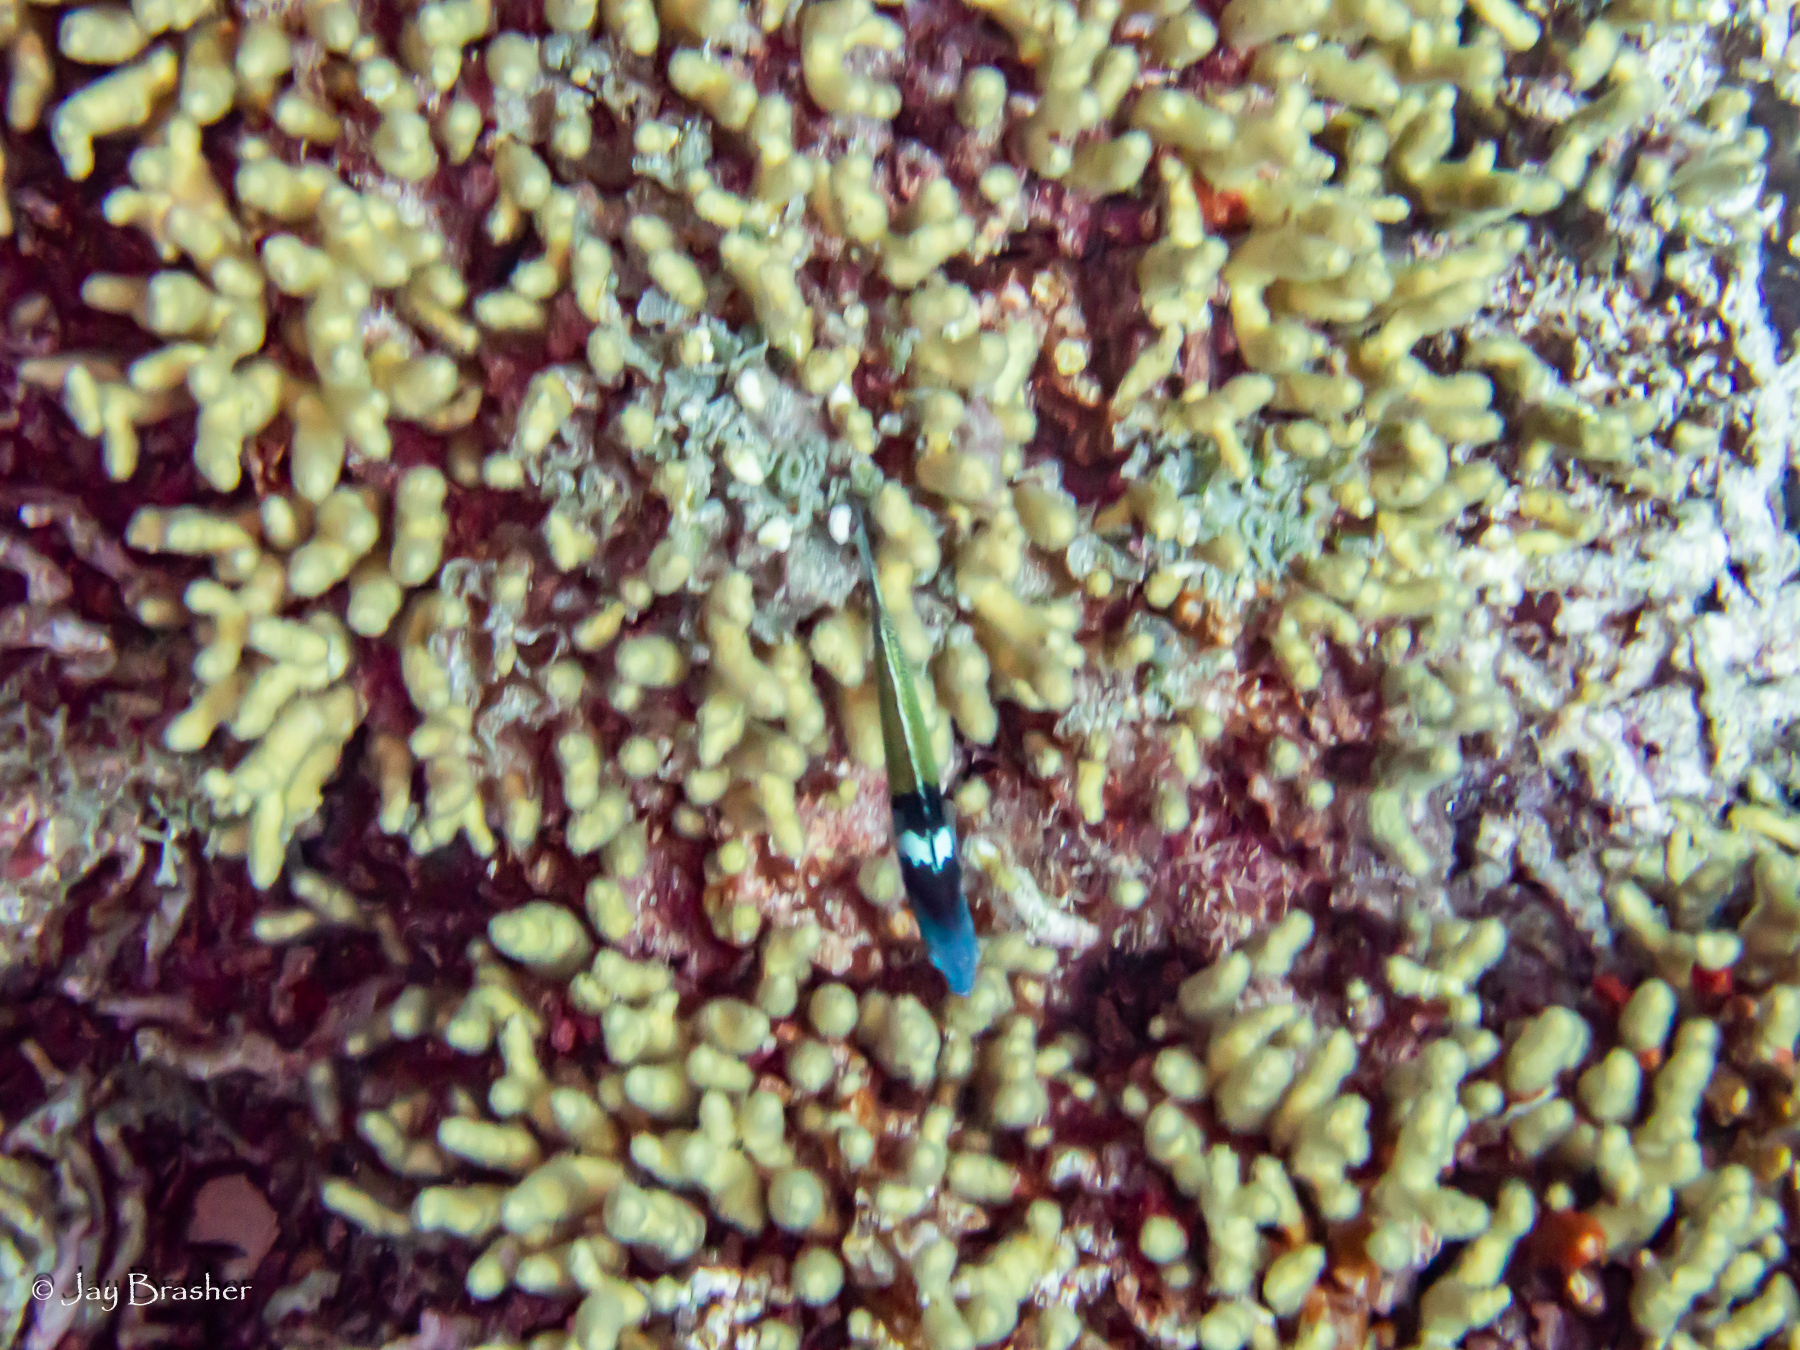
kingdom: Animalia
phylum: Cnidaria
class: Anthozoa
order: Scleractinia
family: Pocilloporidae
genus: Madracis
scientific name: Madracis auretenra
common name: Yellow pencil coral
